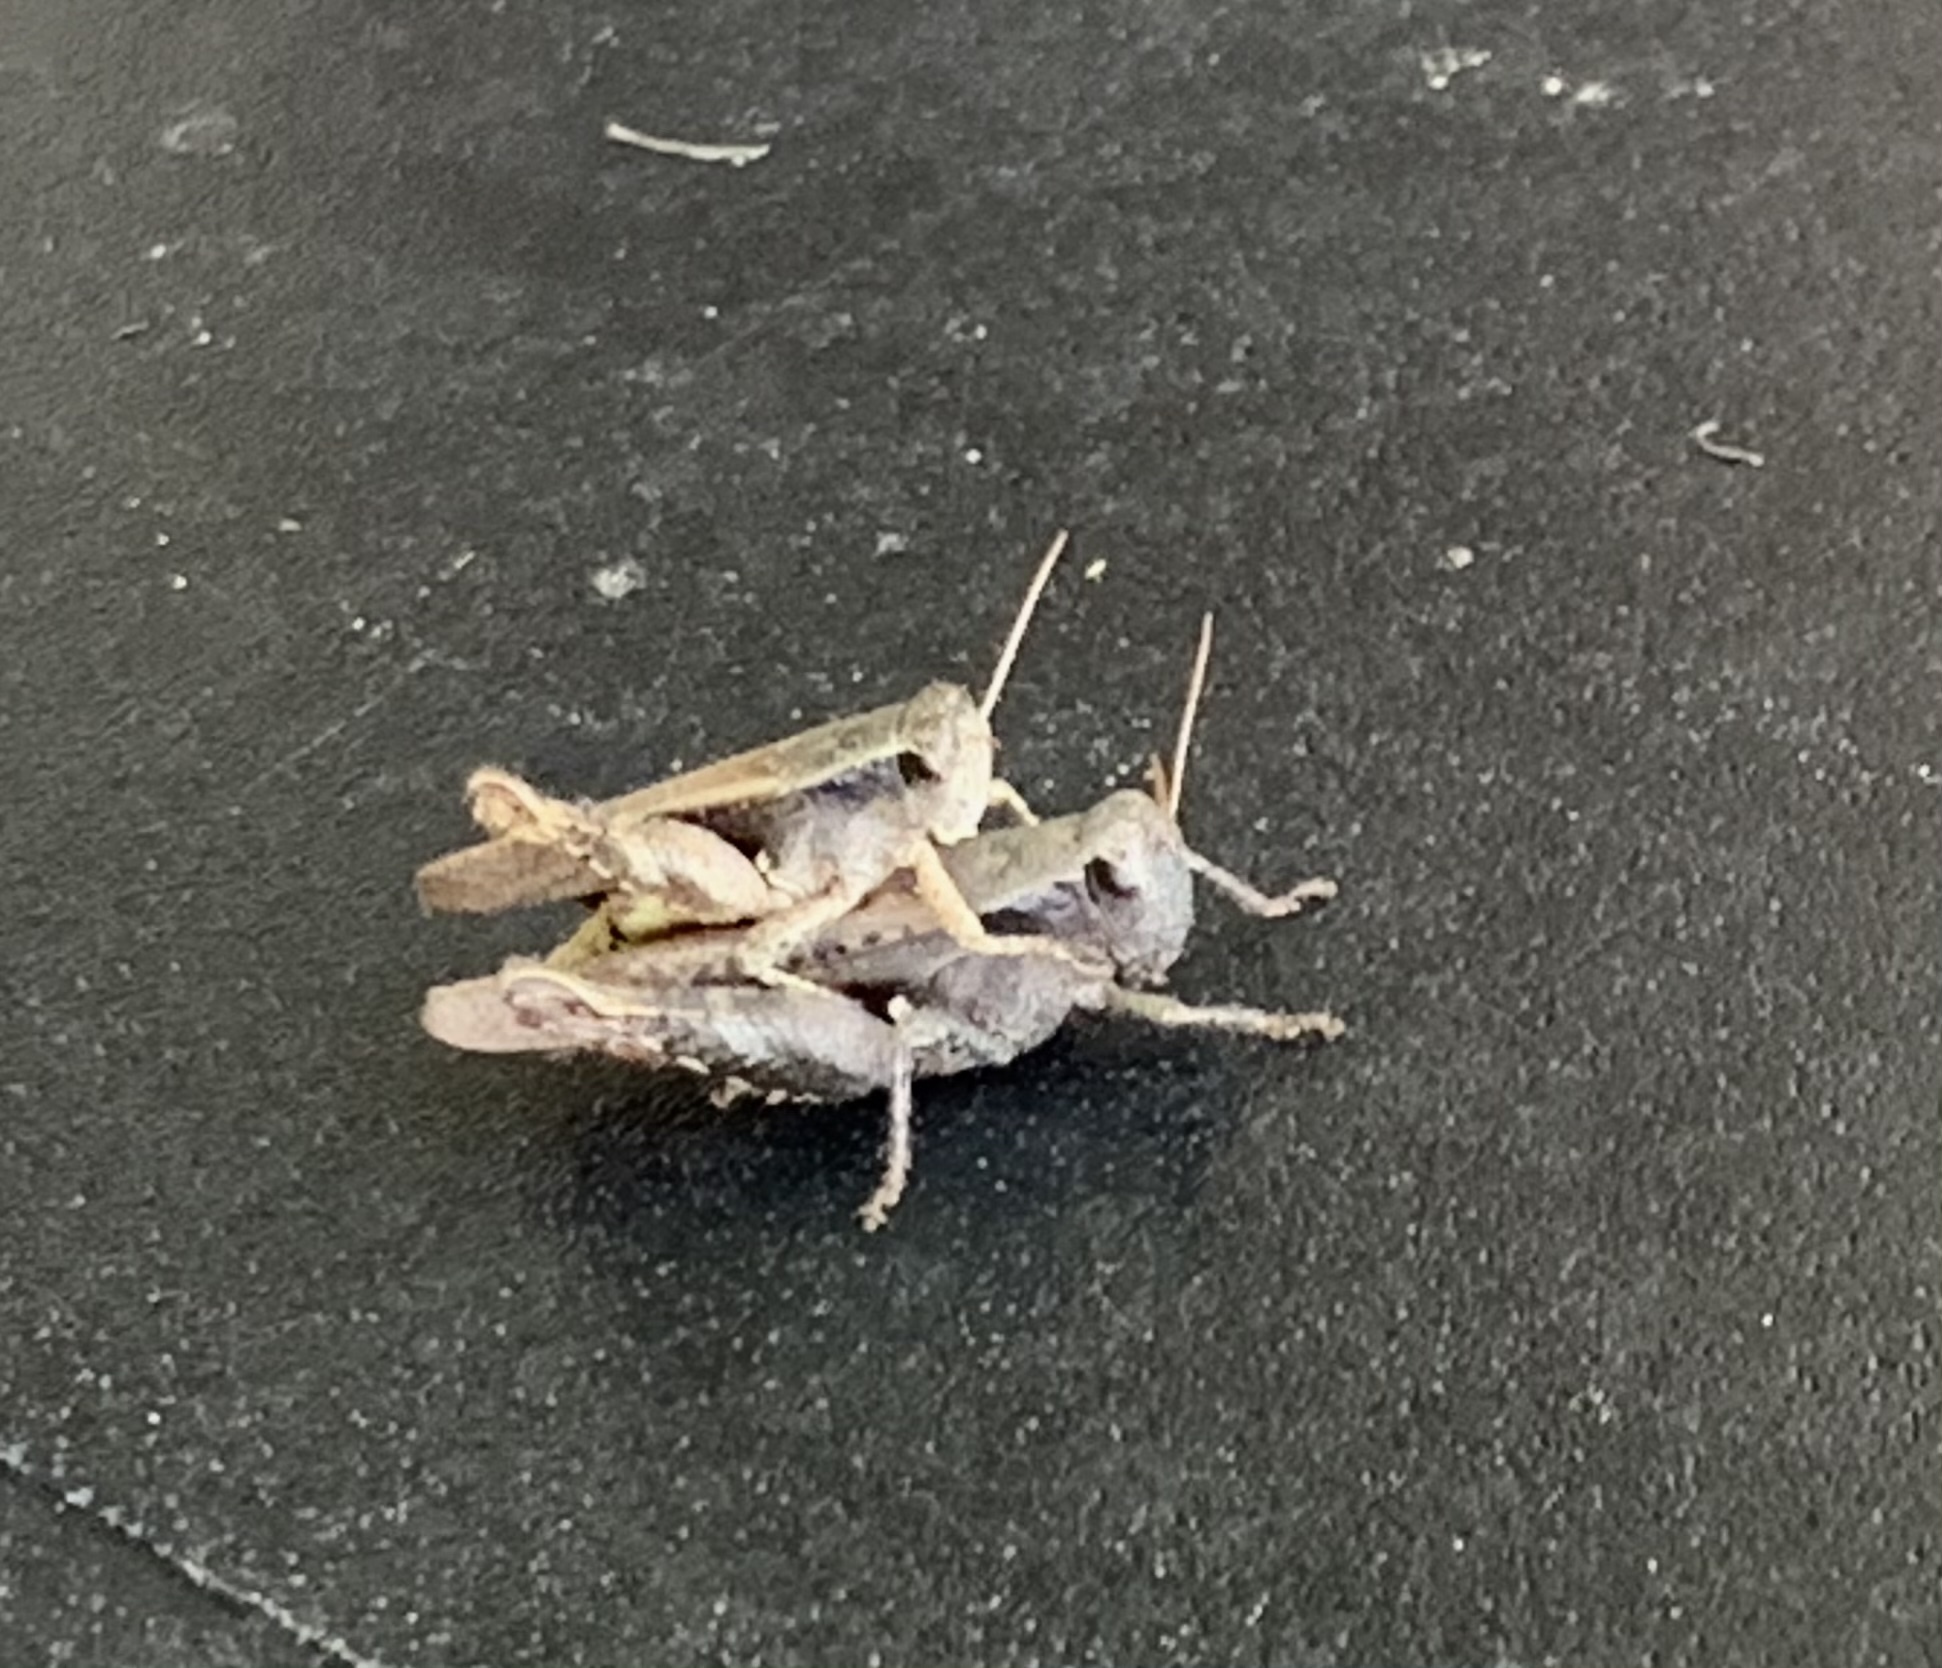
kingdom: Animalia
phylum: Arthropoda
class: Insecta
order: Orthoptera
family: Acrididae
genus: Aidemona
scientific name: Aidemona azteca
